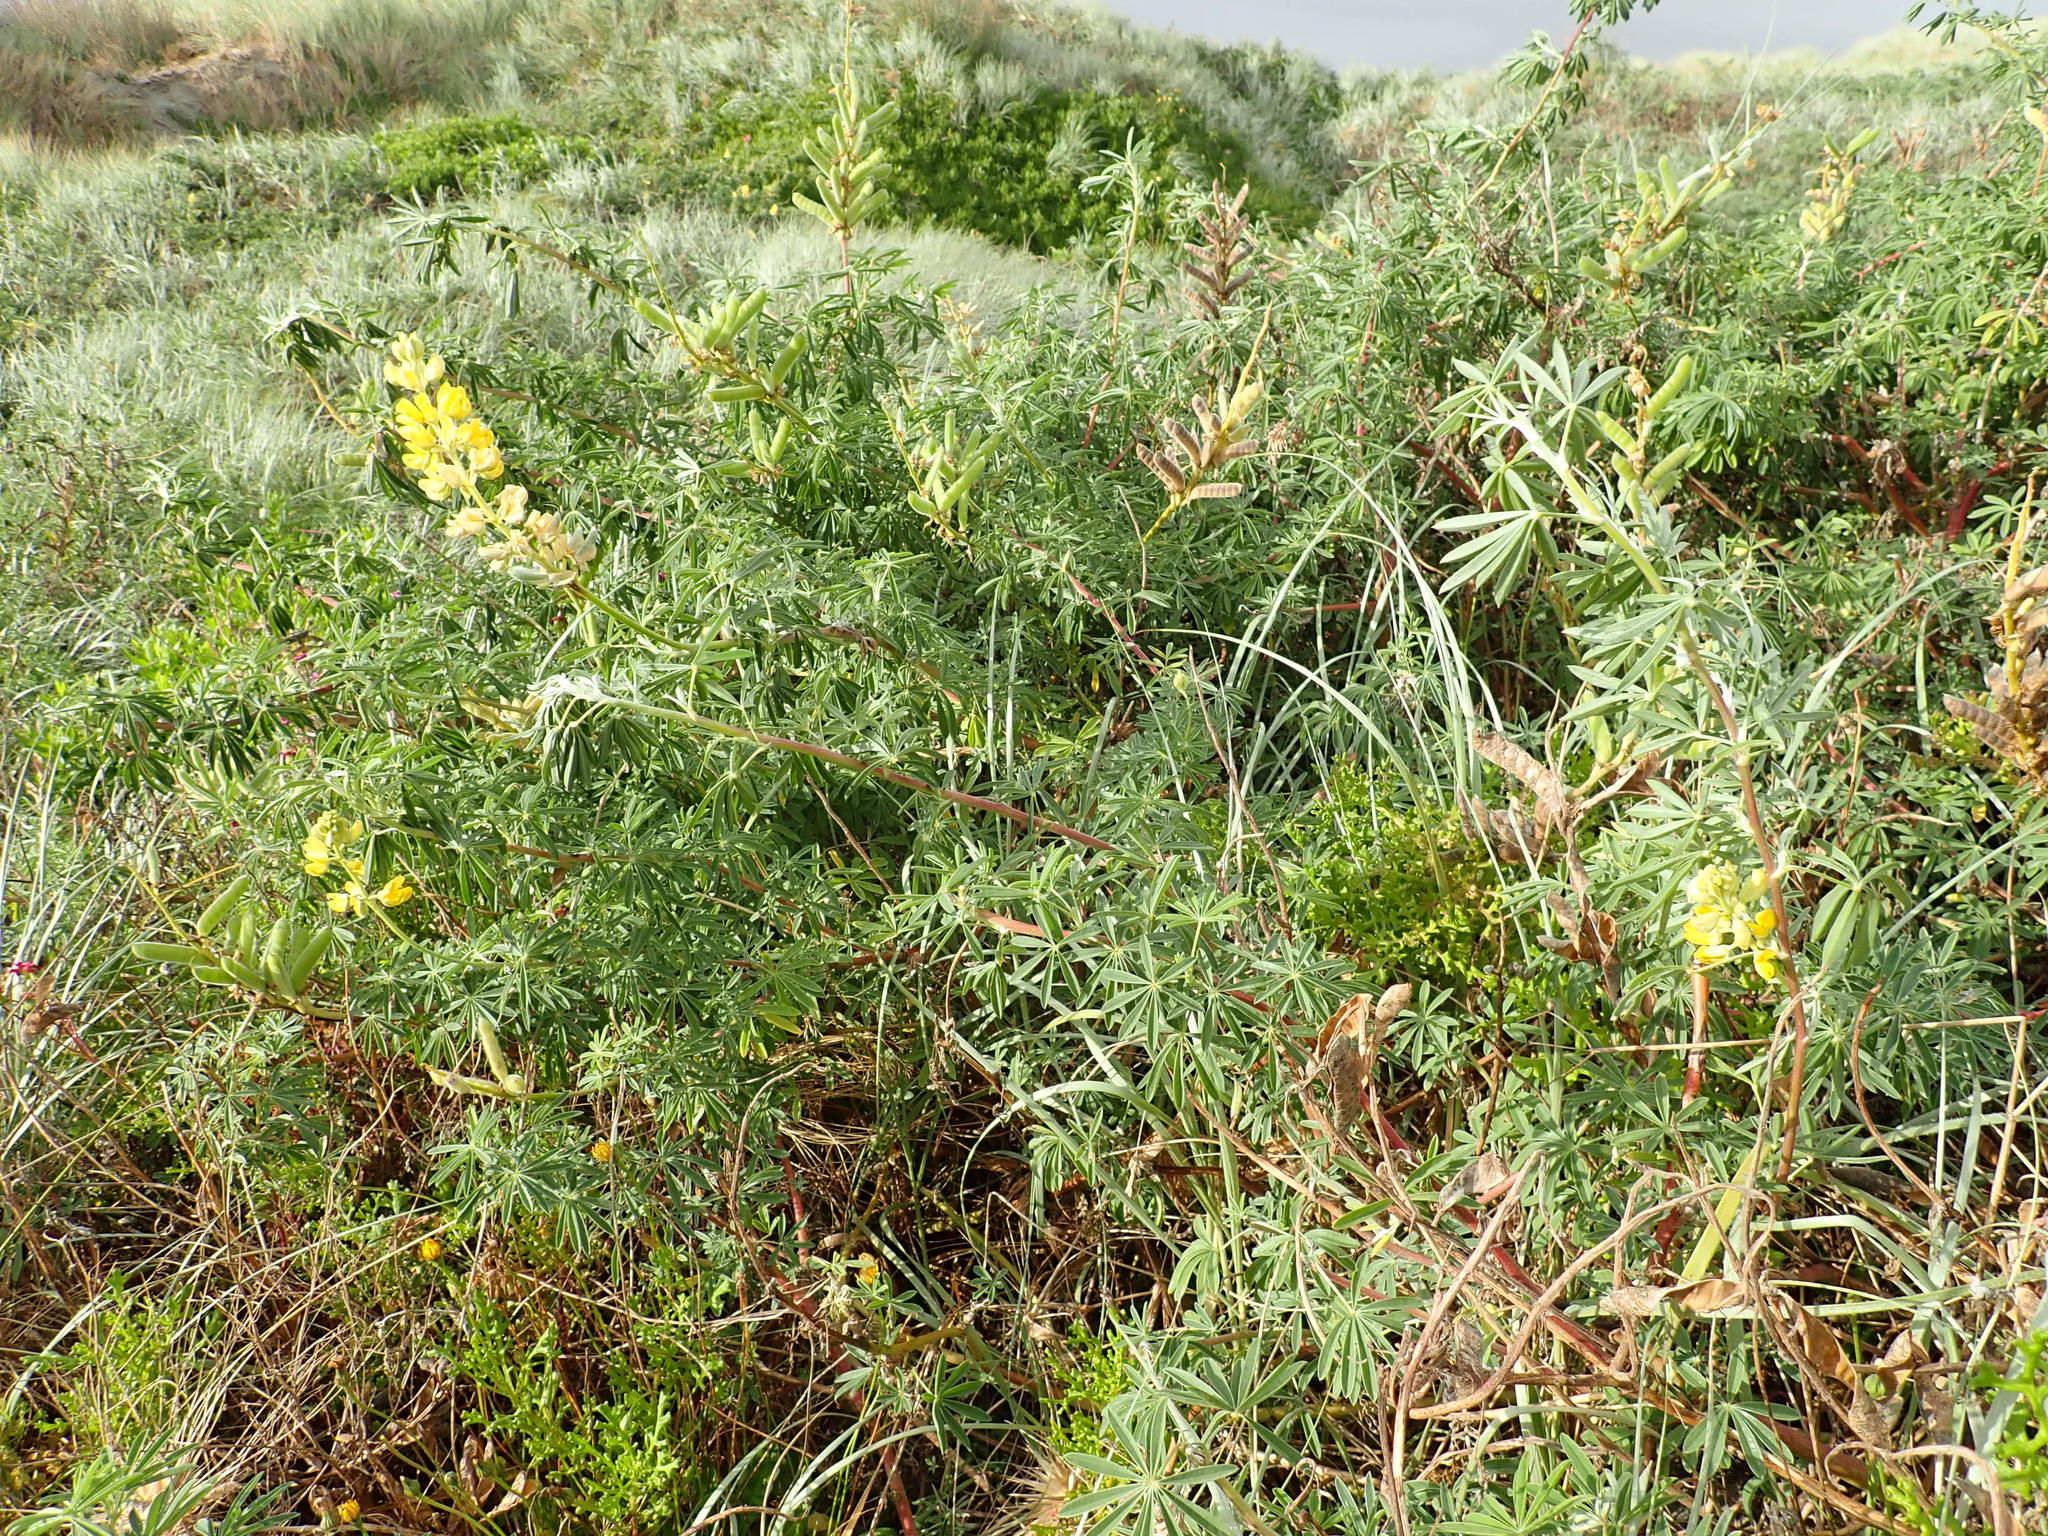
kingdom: Plantae
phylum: Tracheophyta
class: Magnoliopsida
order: Fabales
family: Fabaceae
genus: Lupinus
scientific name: Lupinus arboreus
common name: Yellow bush lupine
